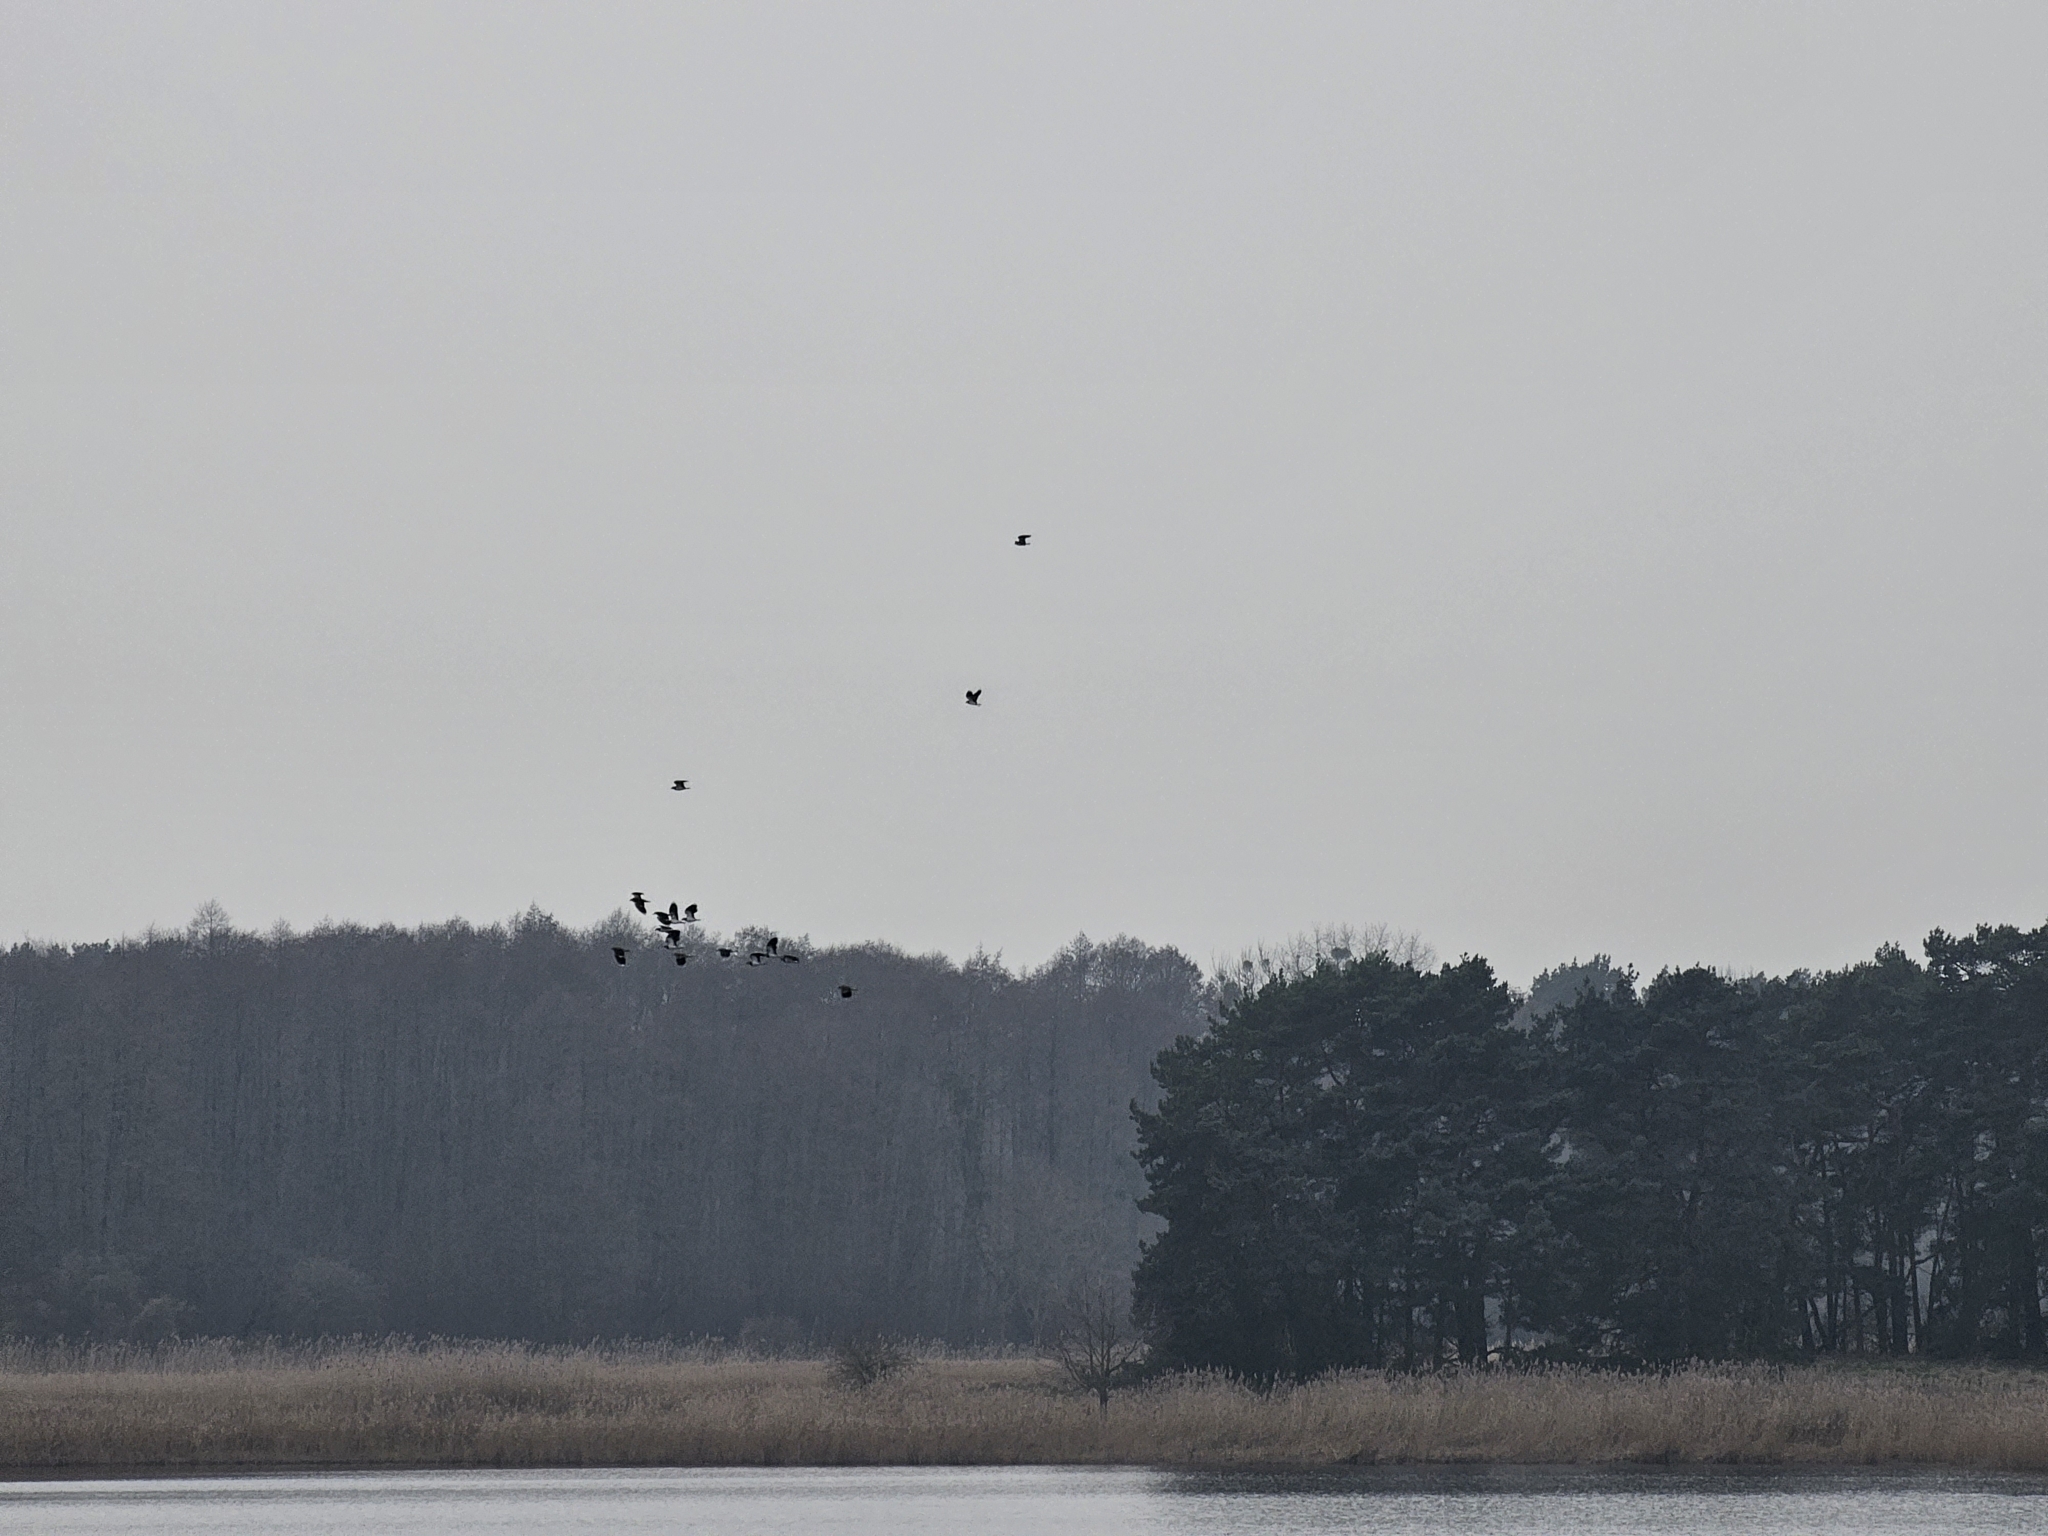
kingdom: Animalia
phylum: Chordata
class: Aves
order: Charadriiformes
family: Charadriidae
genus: Vanellus
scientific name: Vanellus vanellus
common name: Northern lapwing
